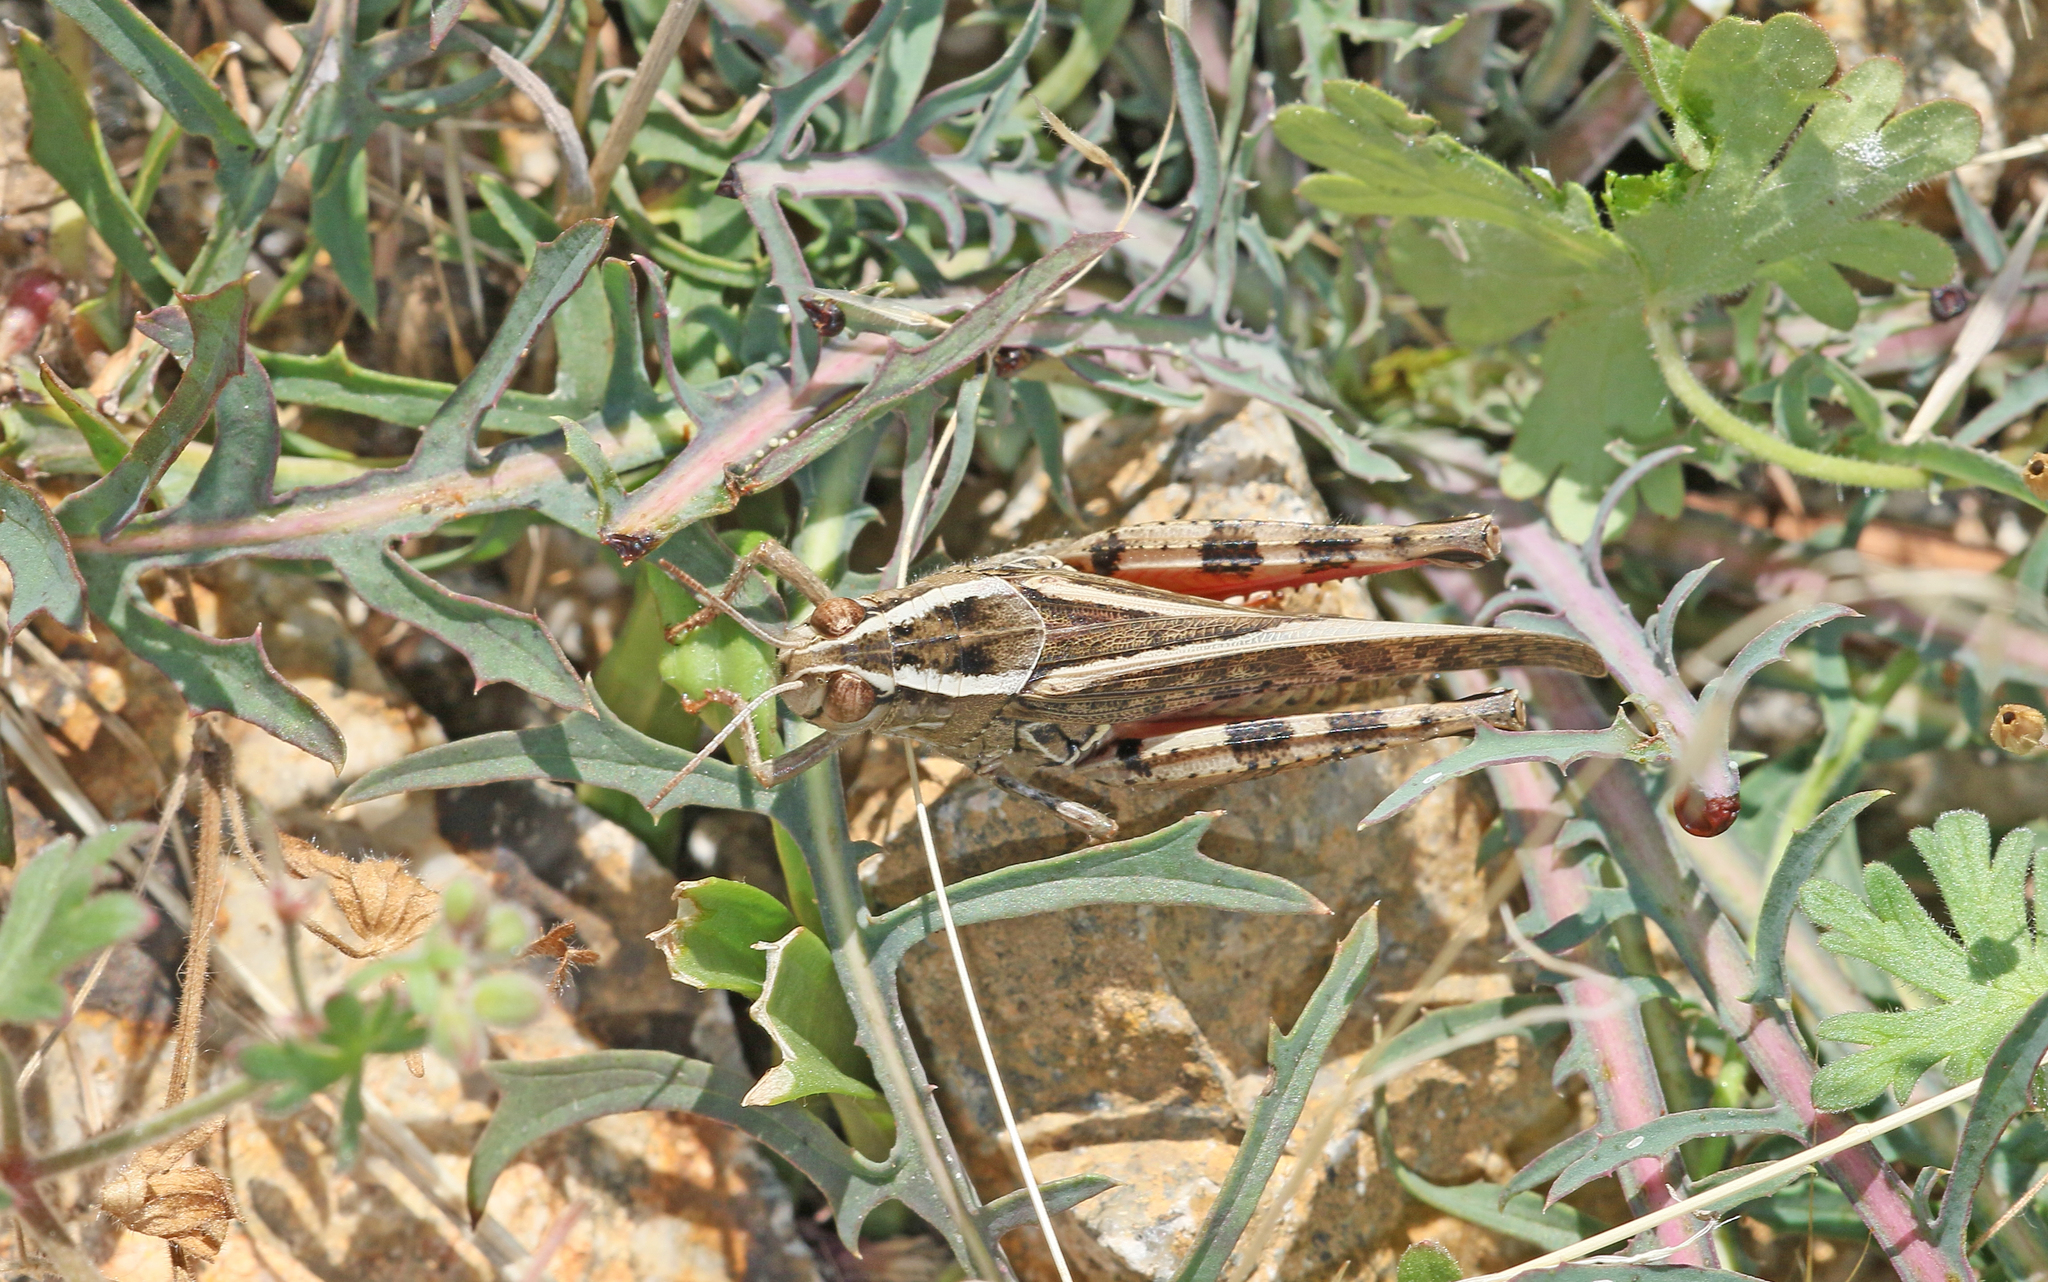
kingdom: Animalia
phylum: Arthropoda
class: Insecta
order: Orthoptera
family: Acrididae
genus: Calliptamus
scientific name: Calliptamus italicus
